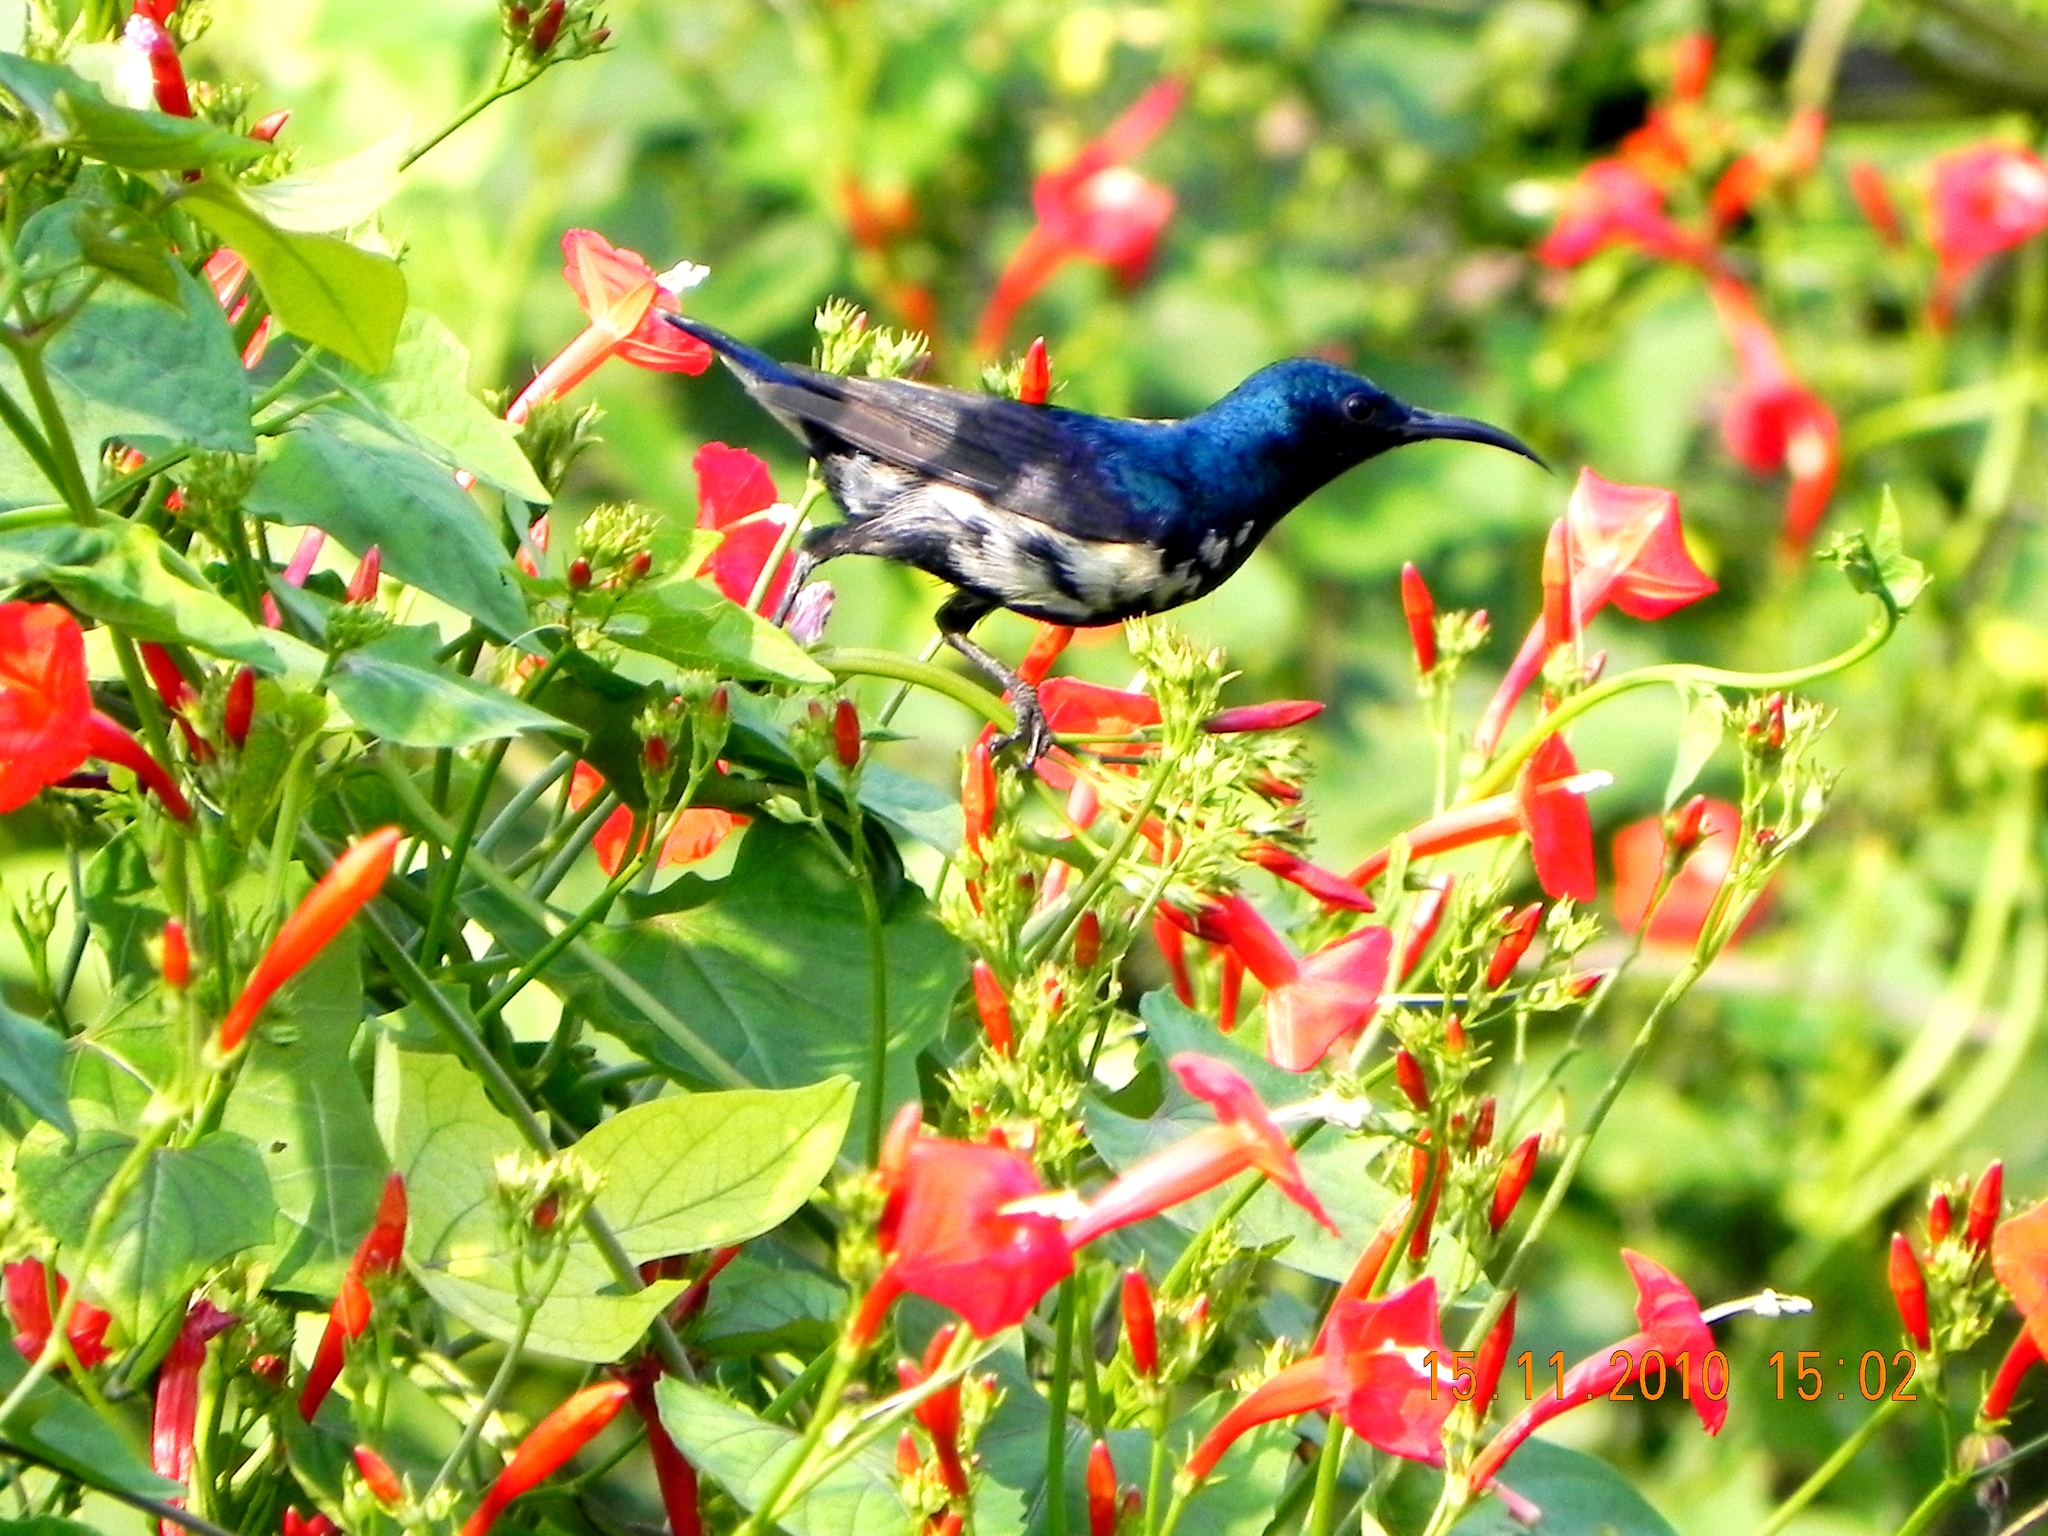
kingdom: Animalia
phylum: Chordata
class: Aves
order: Passeriformes
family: Nectariniidae
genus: Cinnyris
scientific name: Cinnyris asiaticus
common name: Purple sunbird
